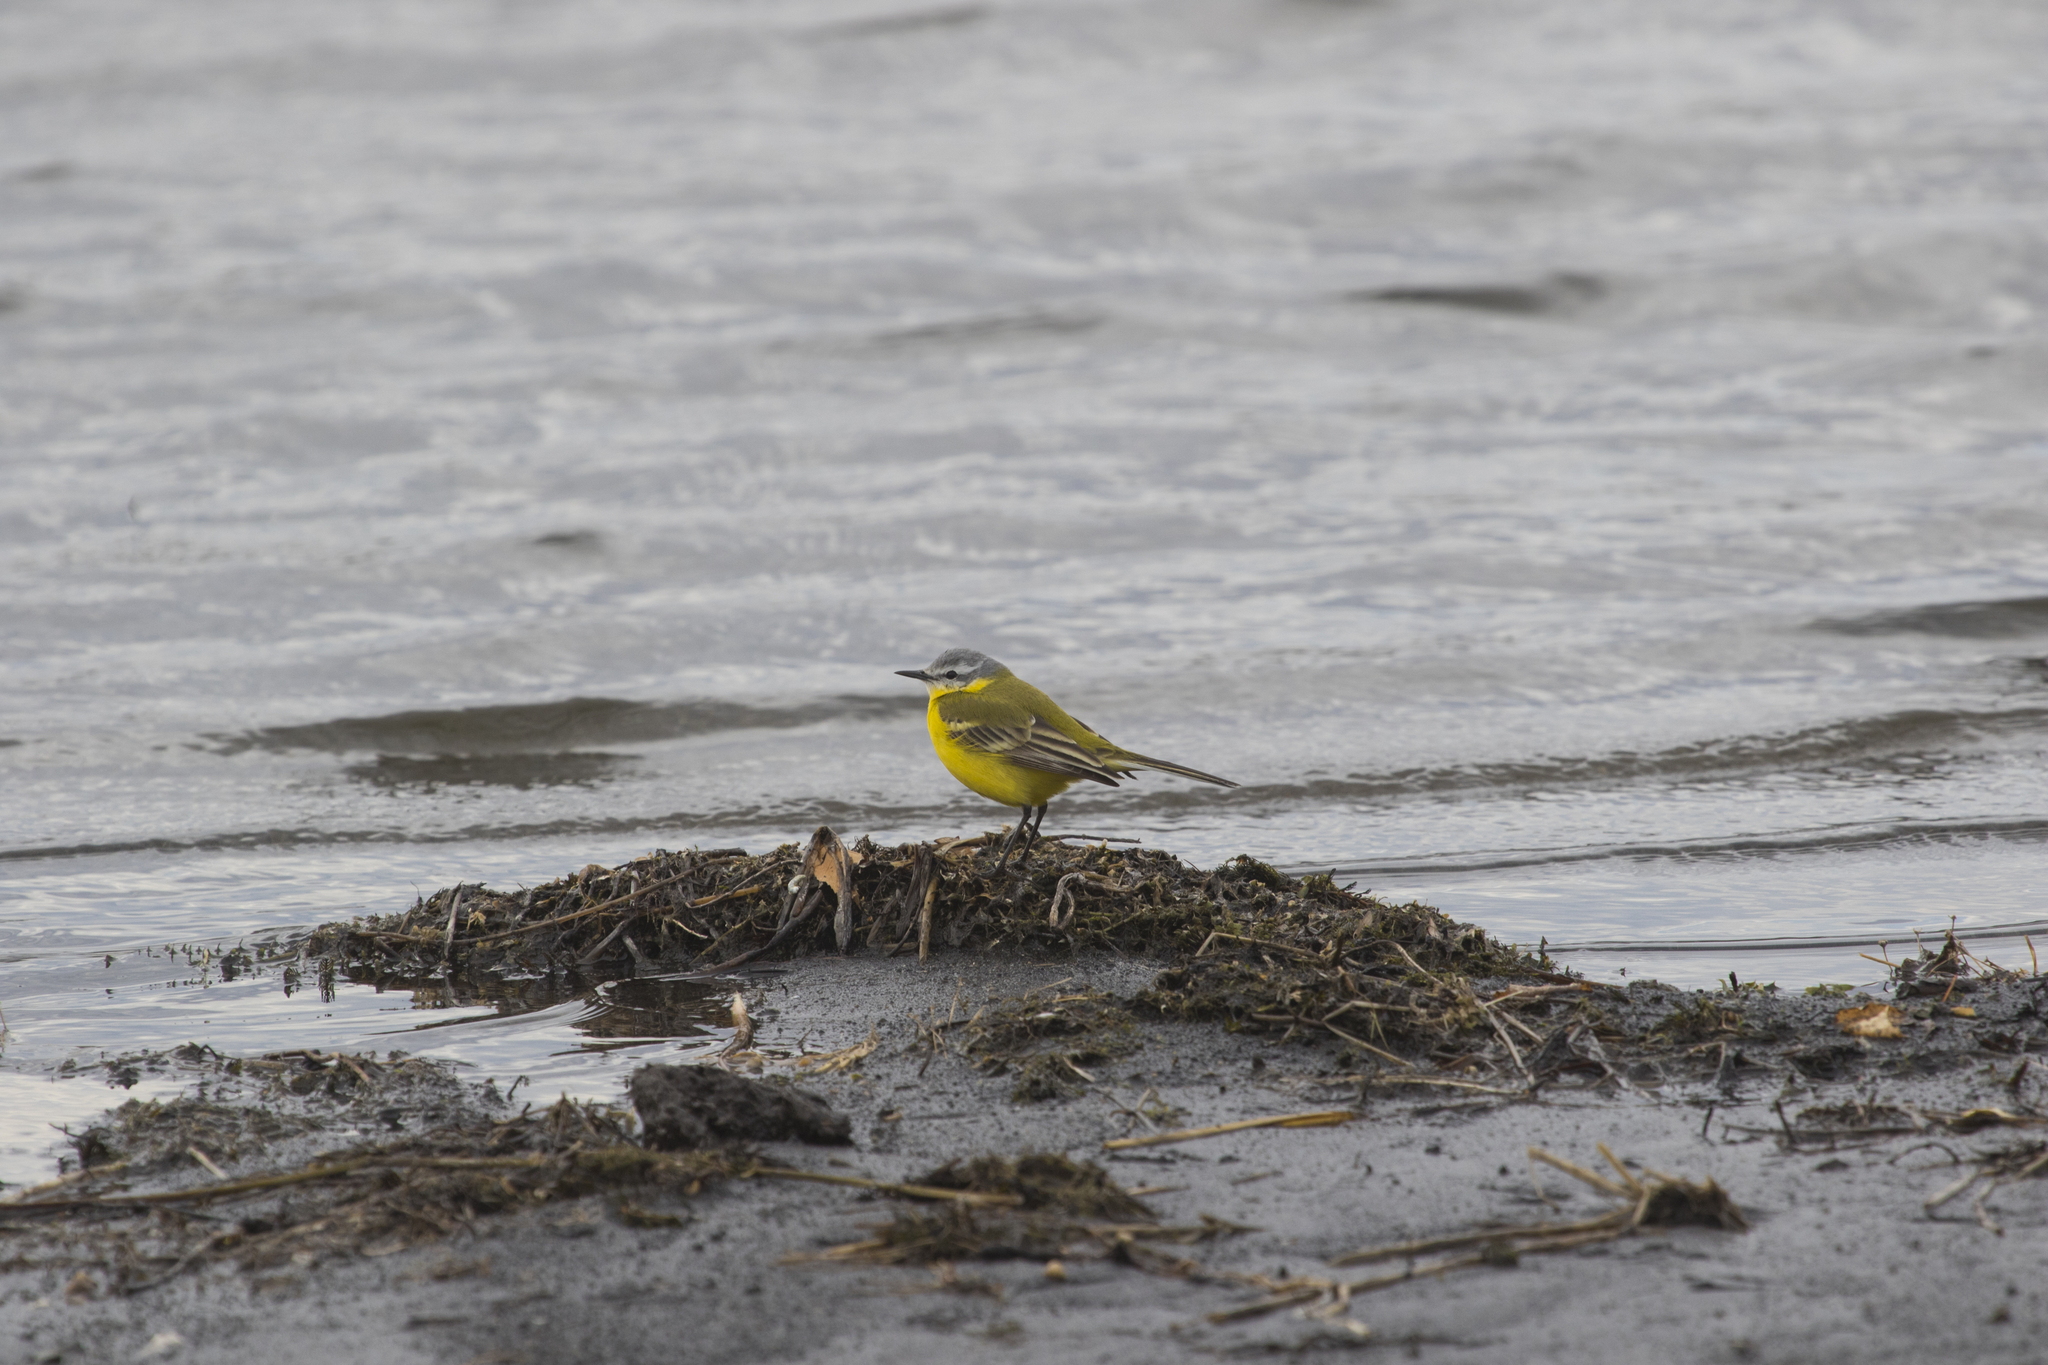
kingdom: Animalia
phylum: Chordata
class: Aves
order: Passeriformes
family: Motacillidae
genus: Motacilla
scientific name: Motacilla flava
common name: Western yellow wagtail
